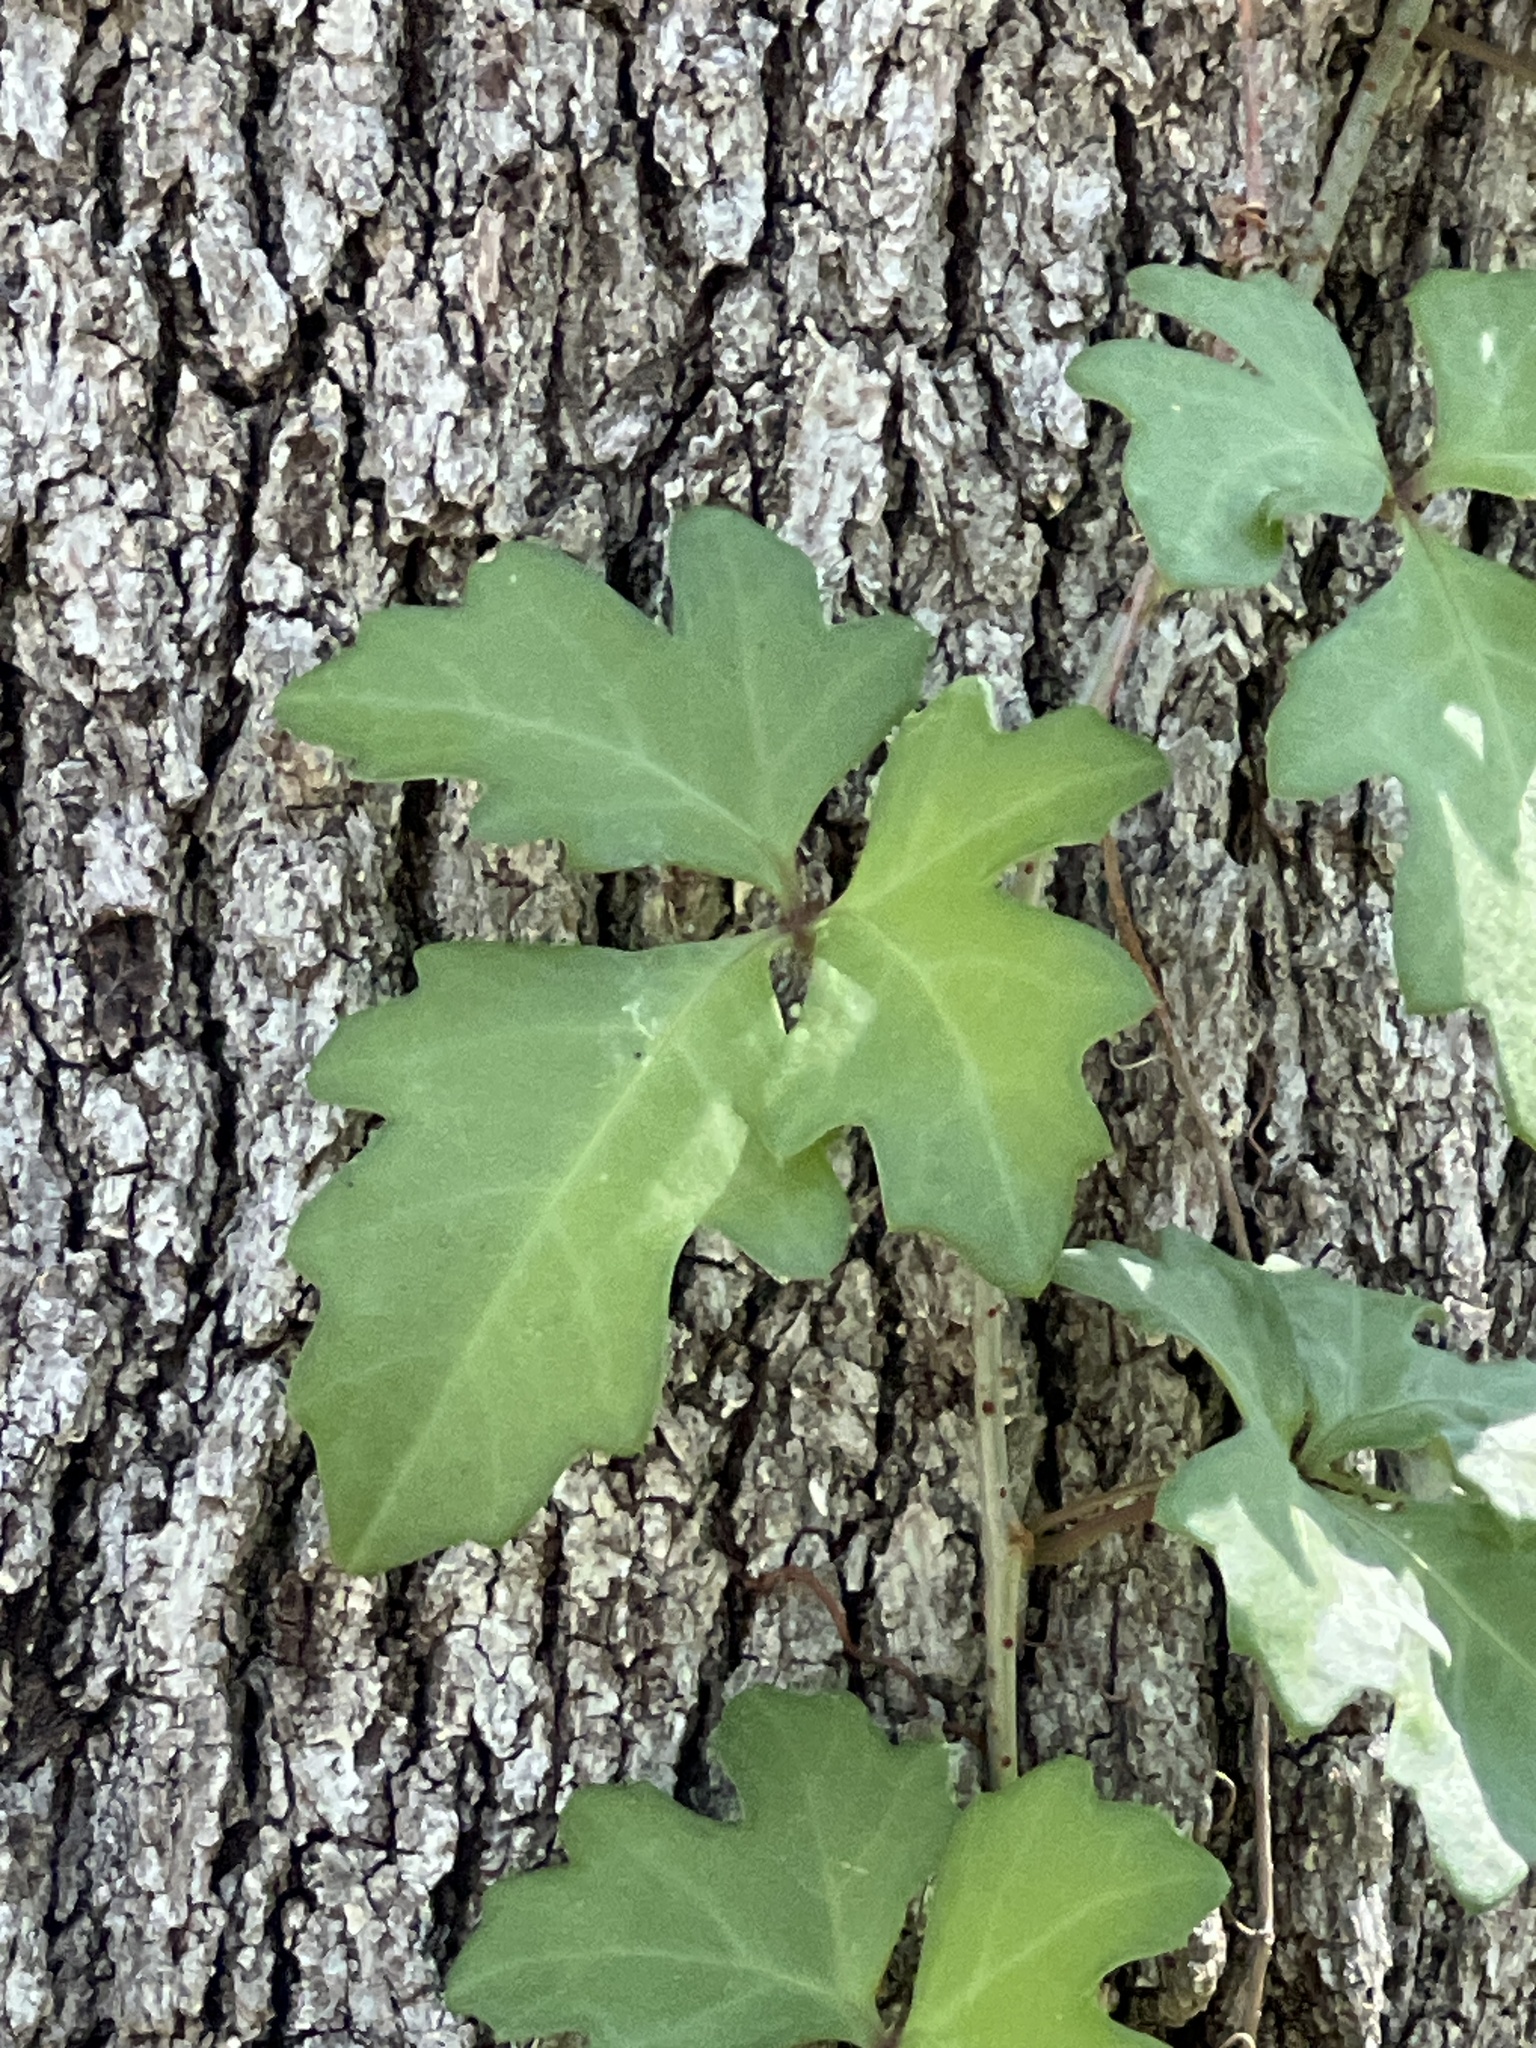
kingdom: Plantae
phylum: Tracheophyta
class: Magnoliopsida
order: Vitales
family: Vitaceae
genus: Cissus
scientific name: Cissus trifoliata
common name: Vine-sorrel
